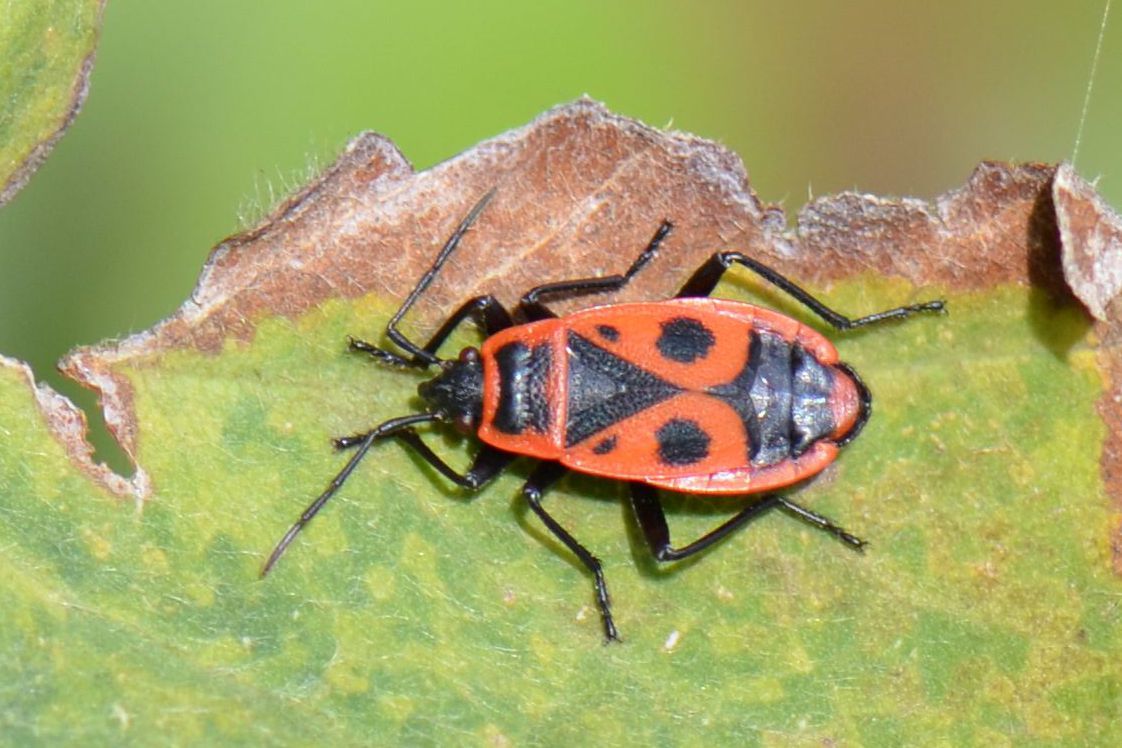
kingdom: Animalia
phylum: Arthropoda
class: Insecta
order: Hemiptera
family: Pyrrhocoridae
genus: Pyrrhocoris
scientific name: Pyrrhocoris apterus
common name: Firebug
